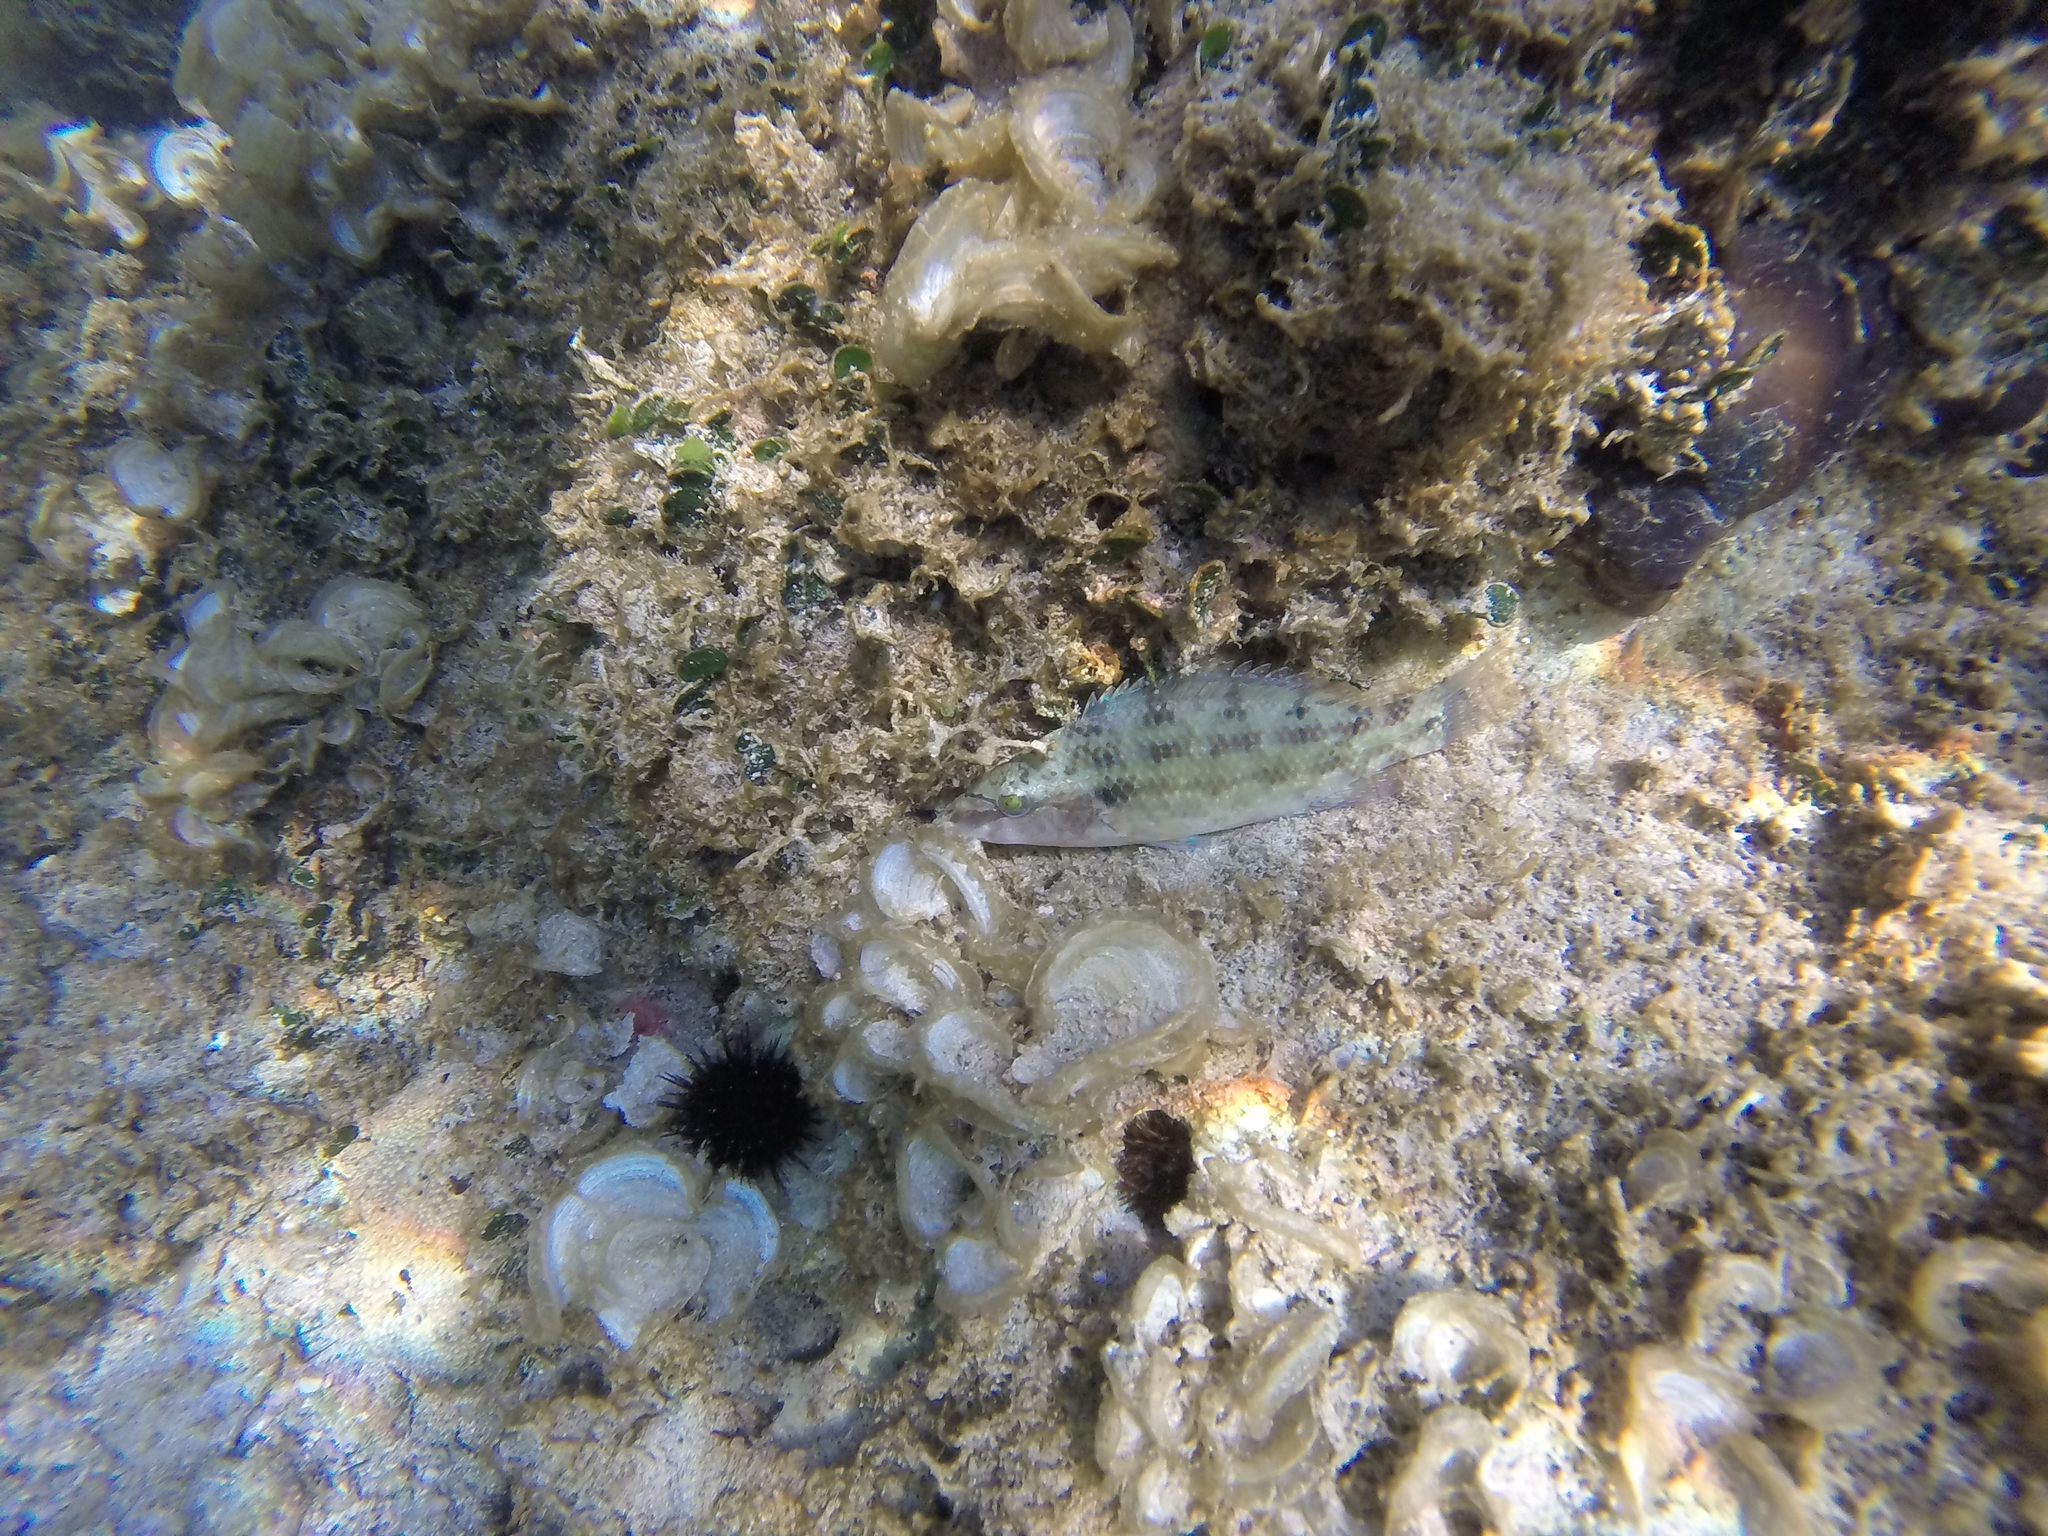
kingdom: Animalia
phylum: Chordata
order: Perciformes
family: Labridae
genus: Symphodus
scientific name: Symphodus tinca
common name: Peacock wrasse
